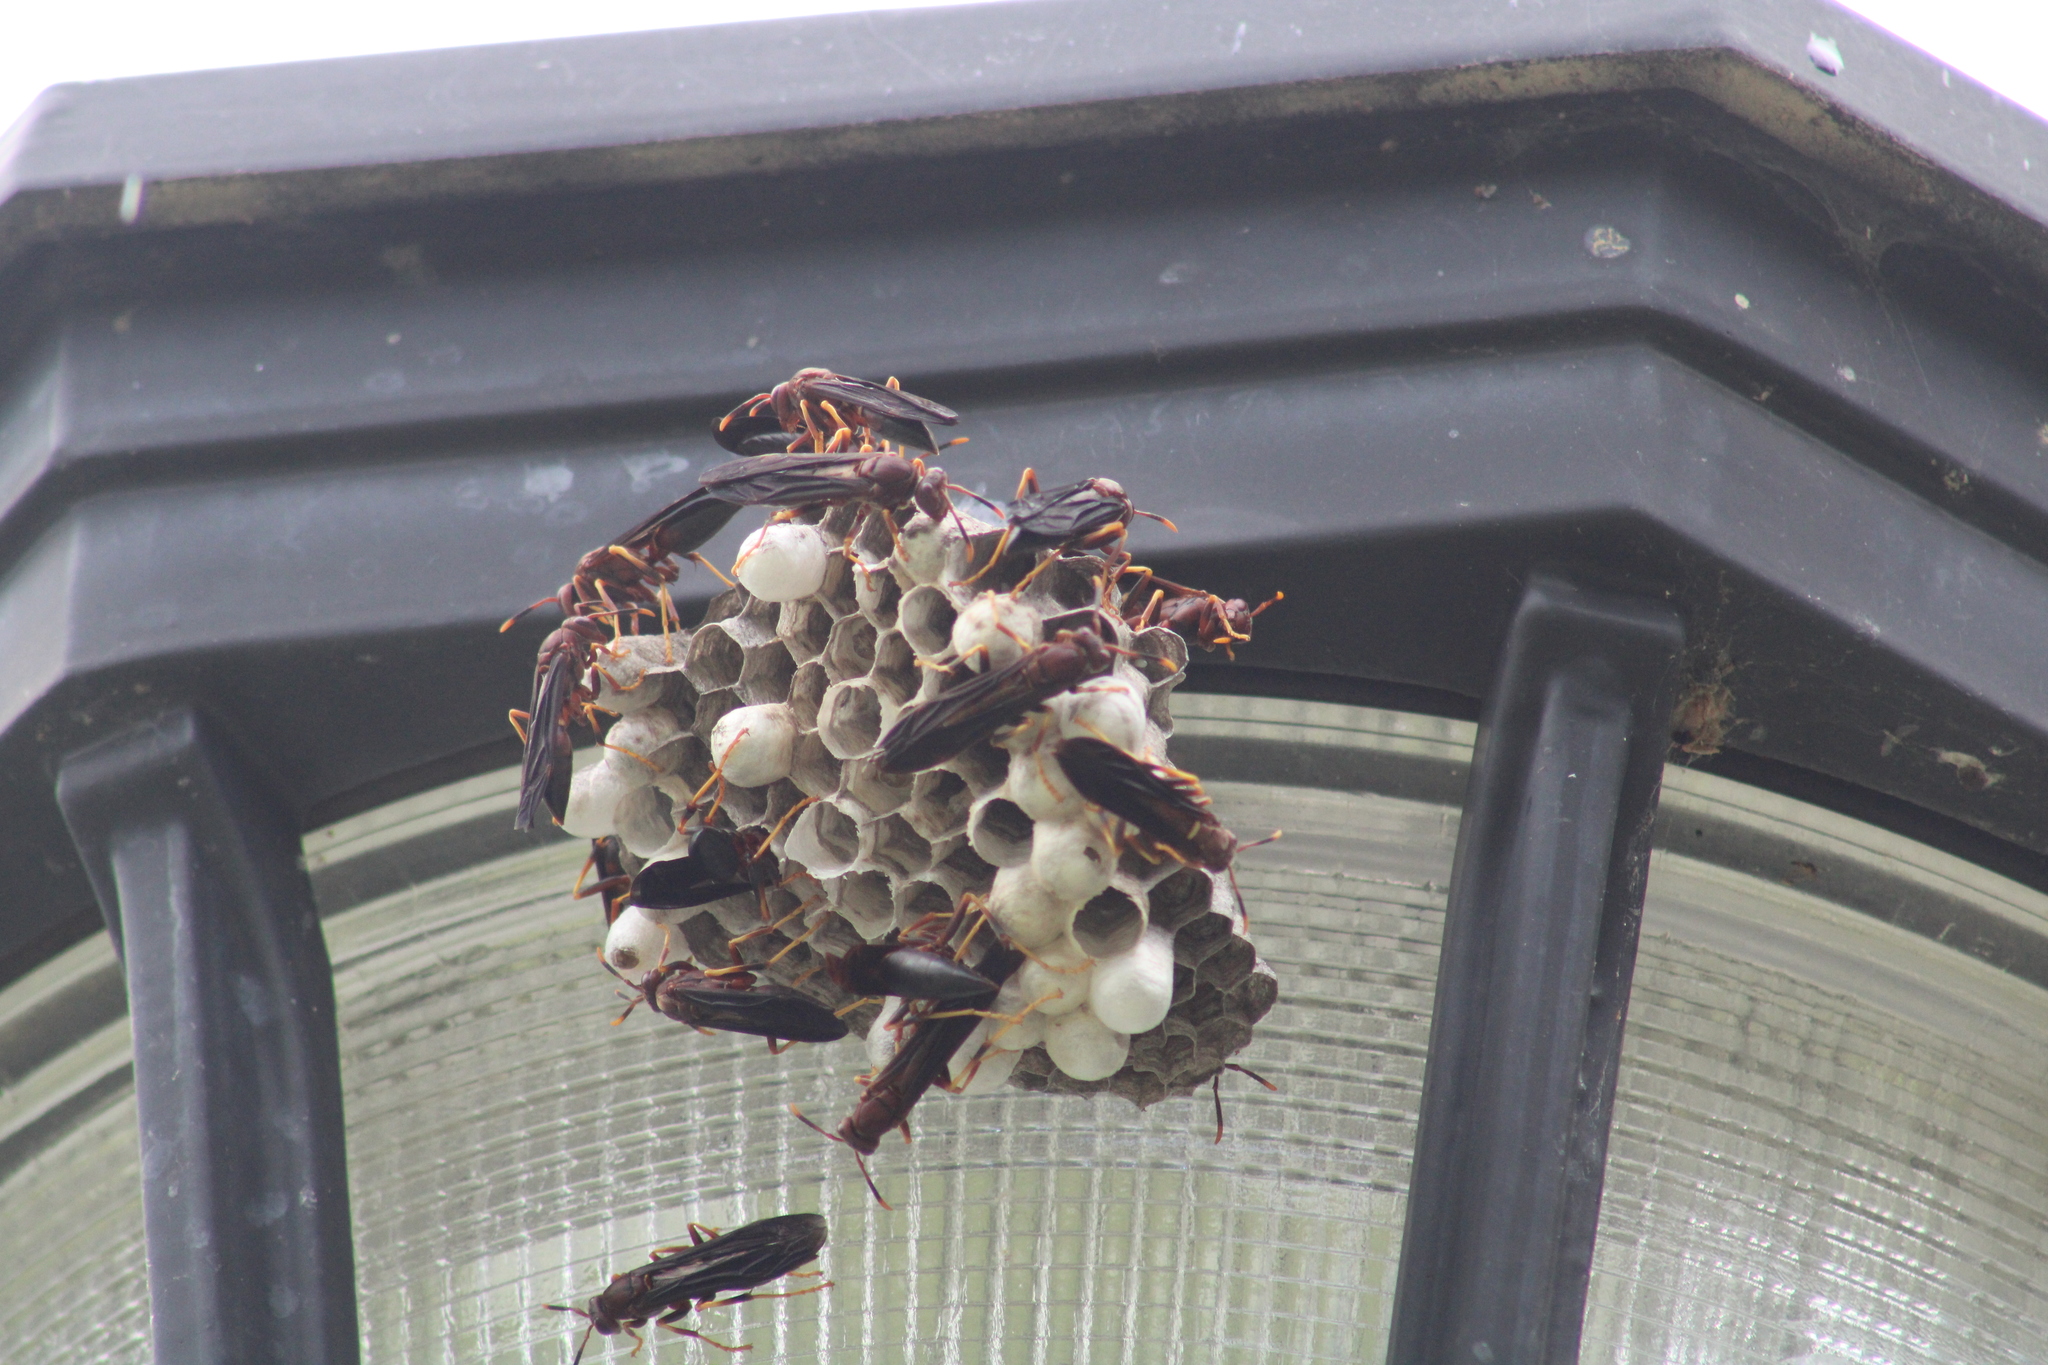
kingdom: Animalia
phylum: Arthropoda
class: Insecta
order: Hymenoptera
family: Eumenidae
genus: Polistes
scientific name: Polistes annularis
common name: Ringed paper wasp
